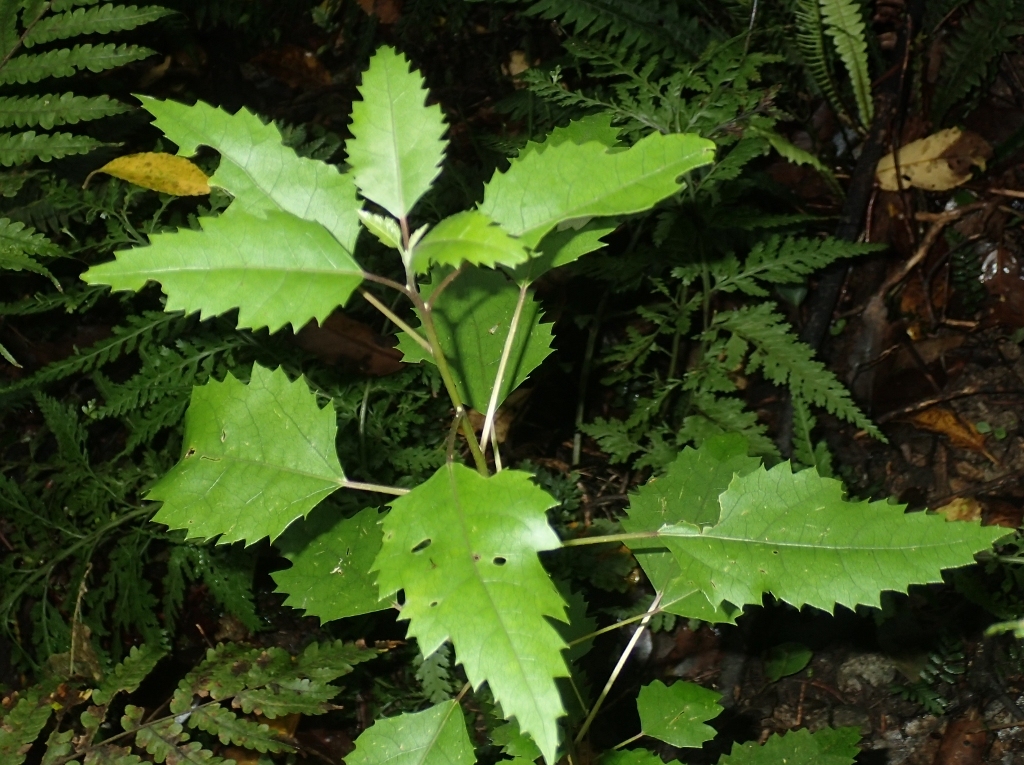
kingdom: Plantae
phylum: Tracheophyta
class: Magnoliopsida
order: Malvales
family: Malvaceae
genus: Hoheria
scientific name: Hoheria populnea
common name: Lacebark
